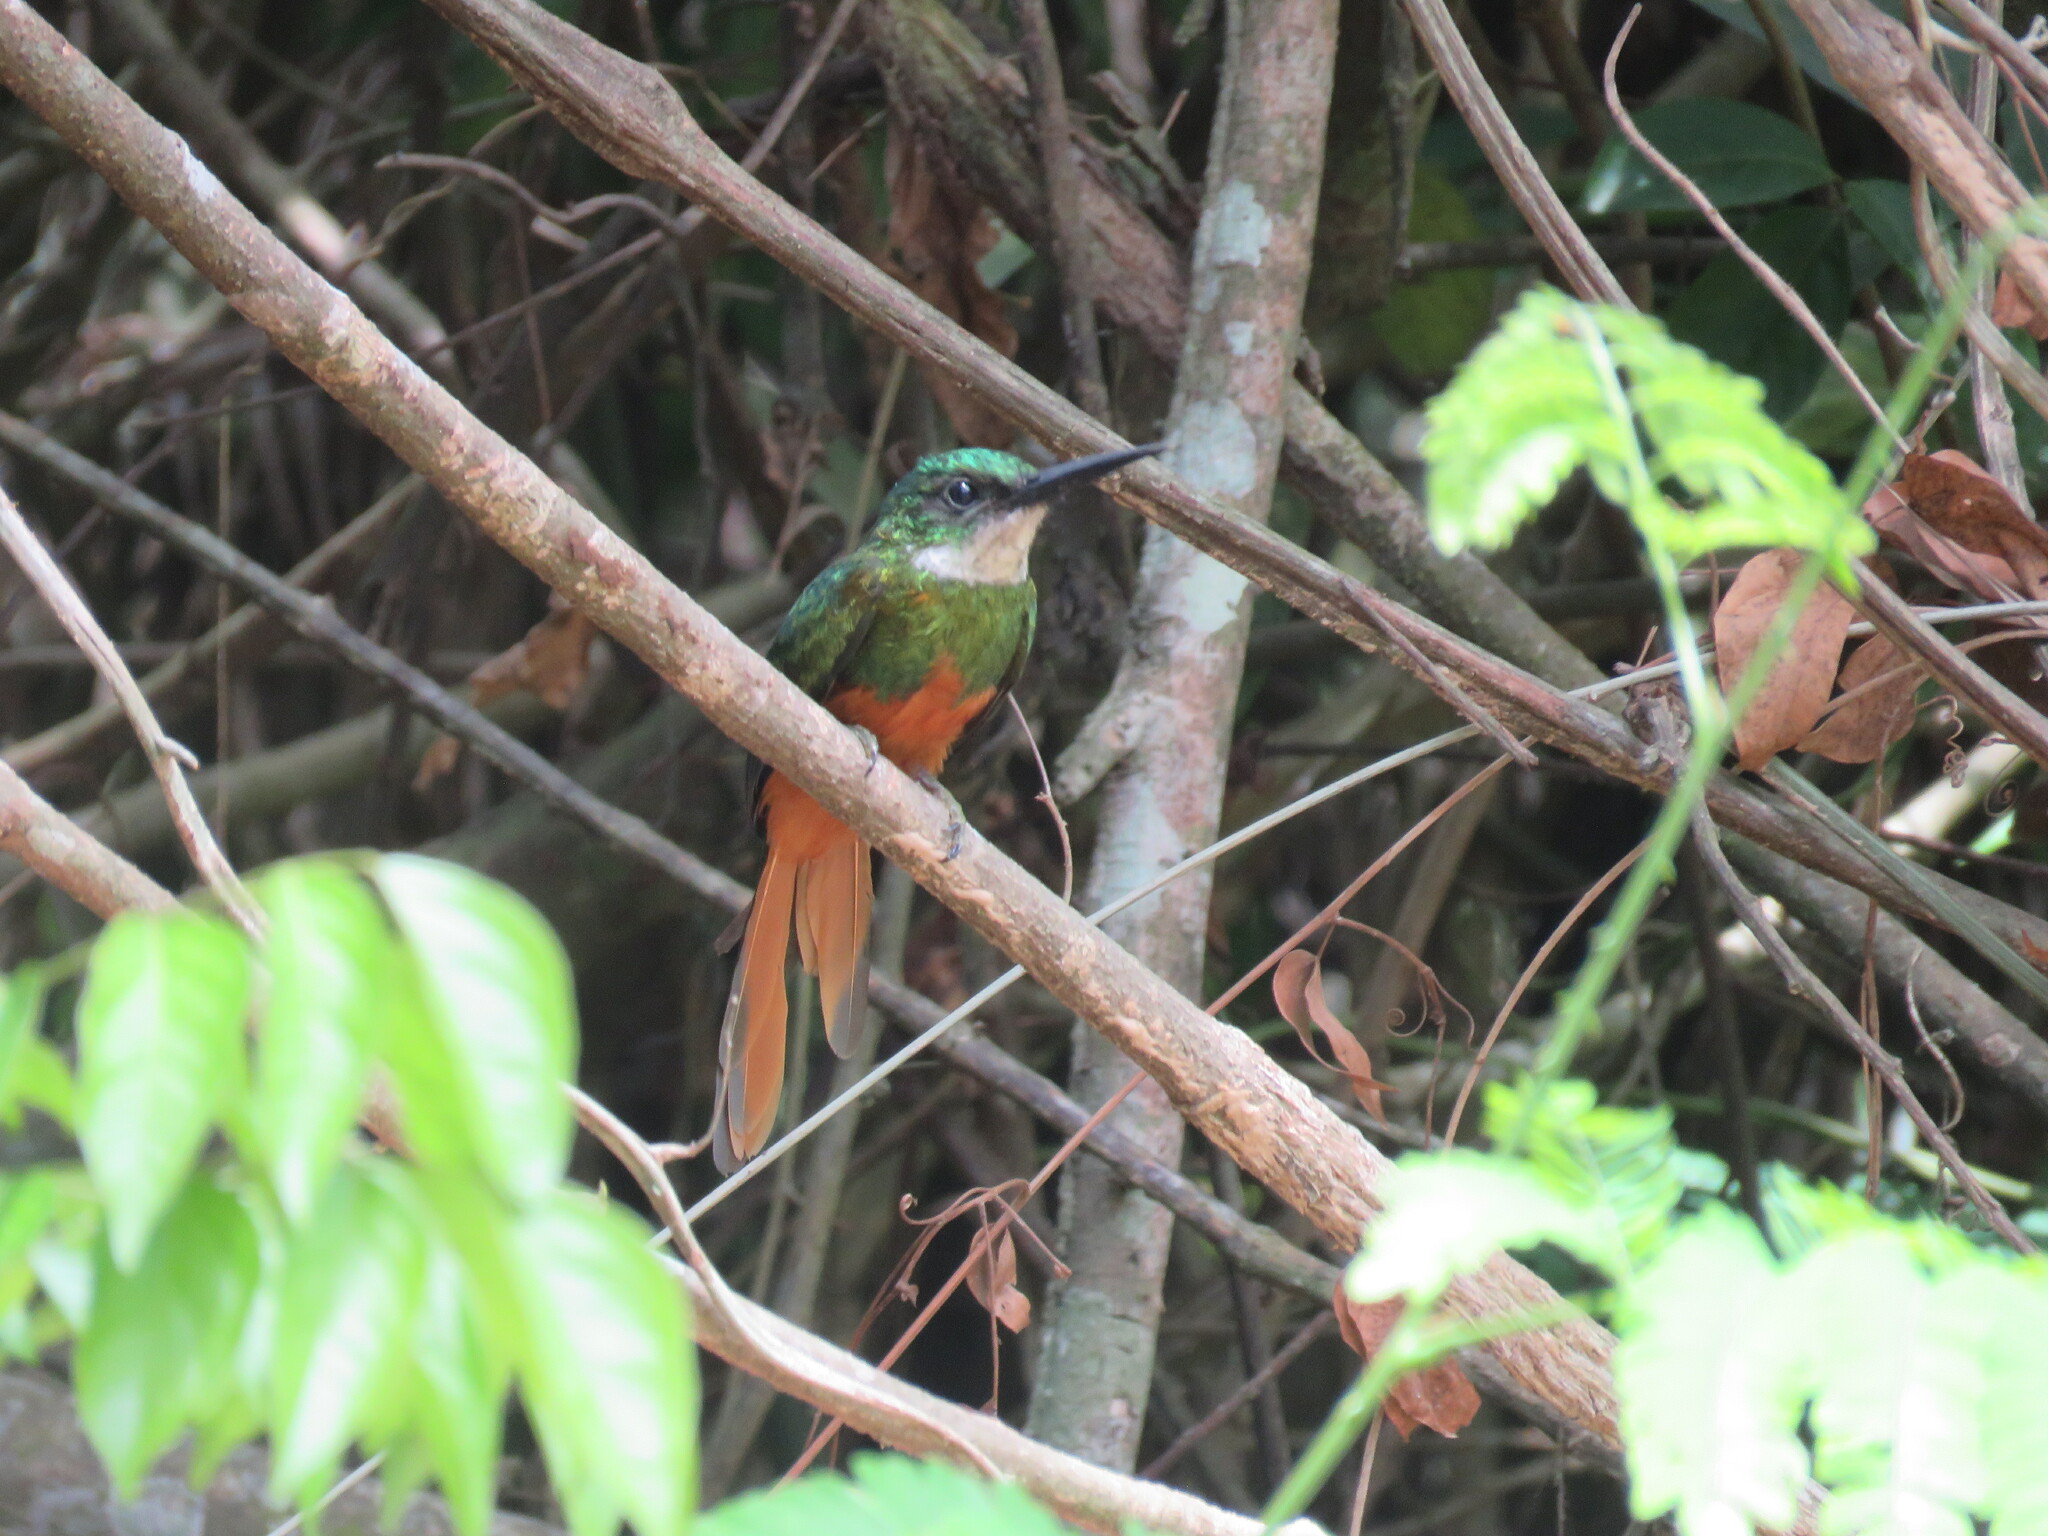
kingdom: Animalia
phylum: Chordata
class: Aves
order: Piciformes
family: Galbulidae
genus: Galbula
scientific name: Galbula ruficauda
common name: Rufous-tailed jacamar
